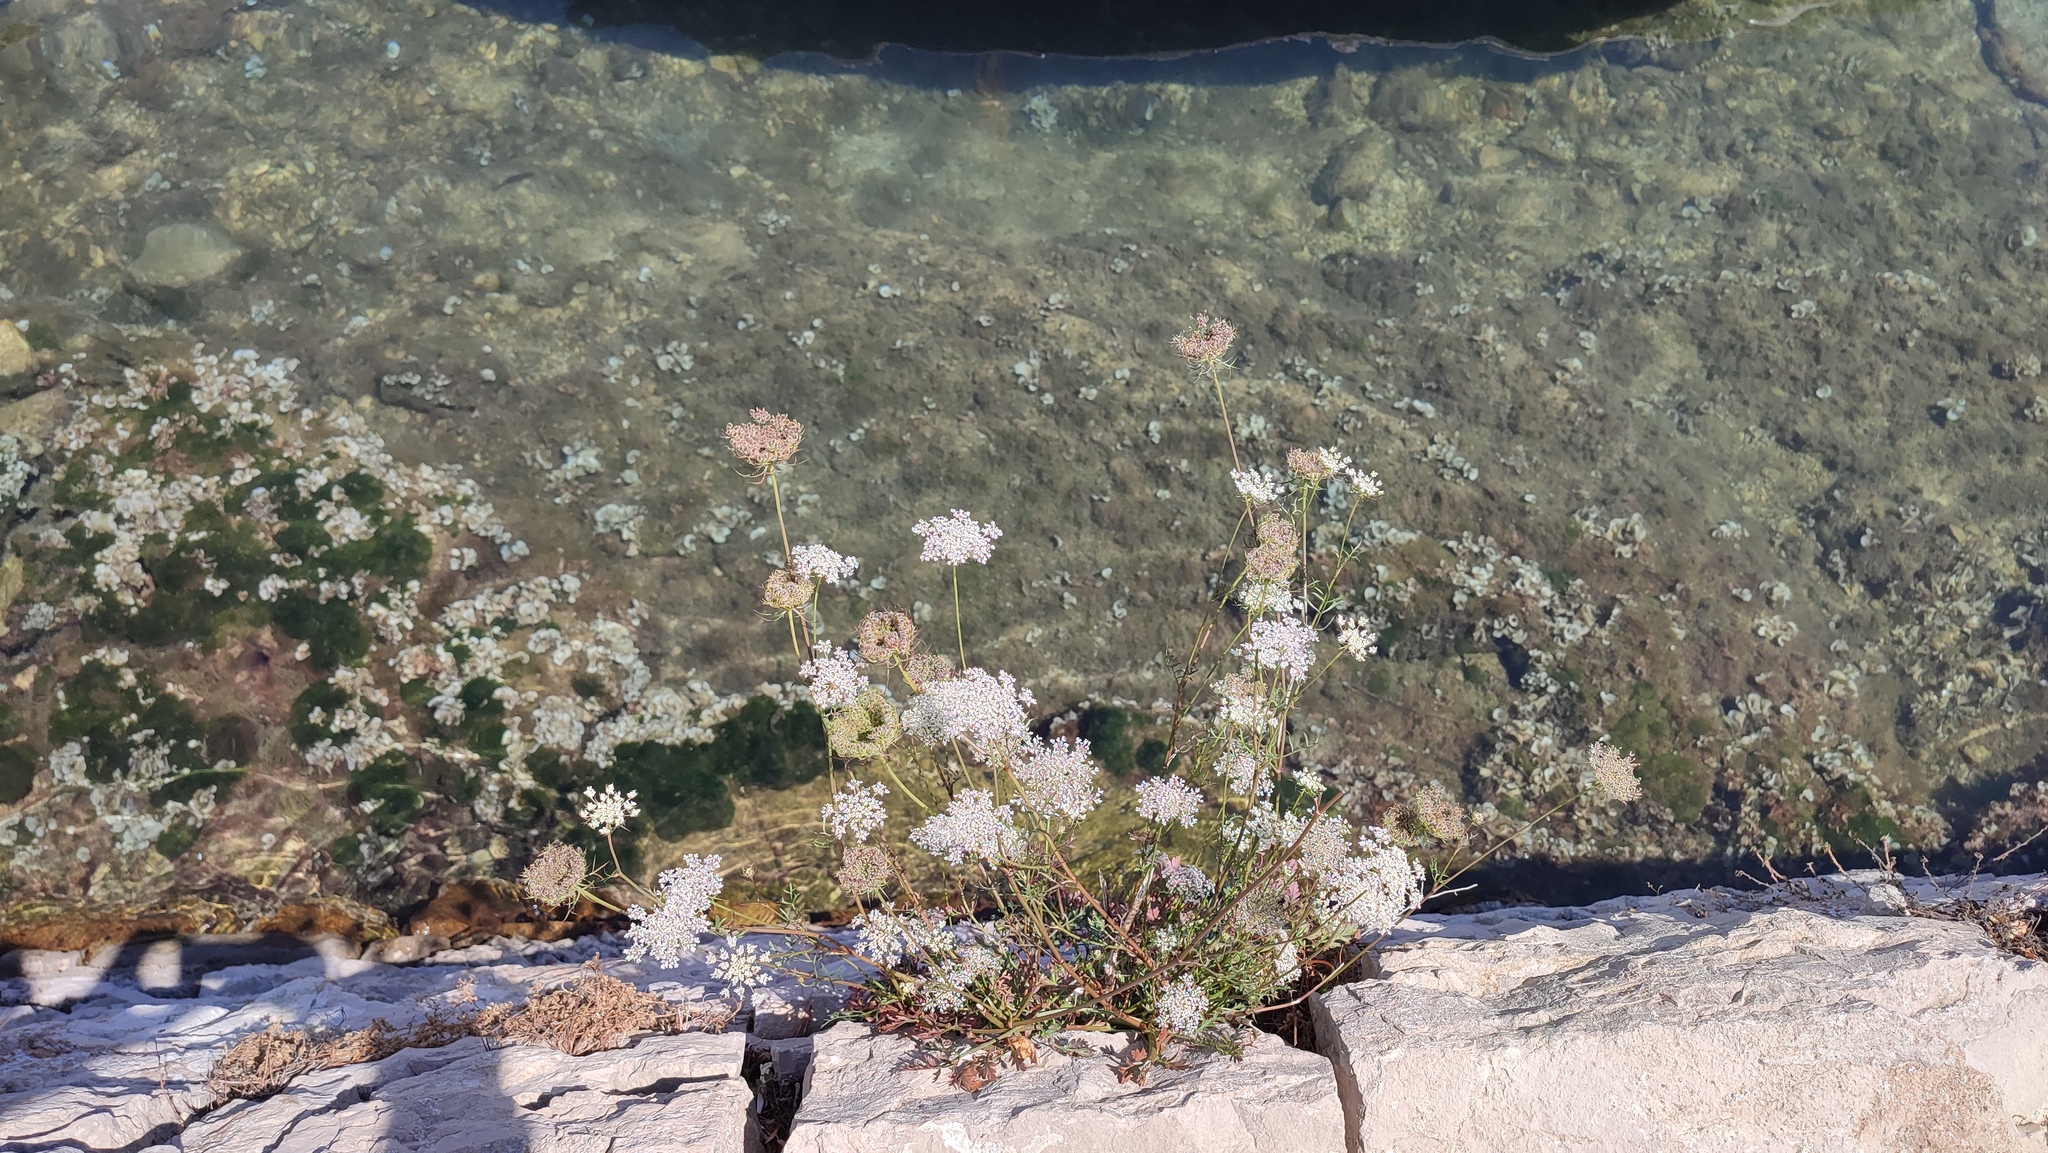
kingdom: Plantae
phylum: Tracheophyta
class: Magnoliopsida
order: Apiales
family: Apiaceae
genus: Daucus
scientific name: Daucus carota
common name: Wild carrot
